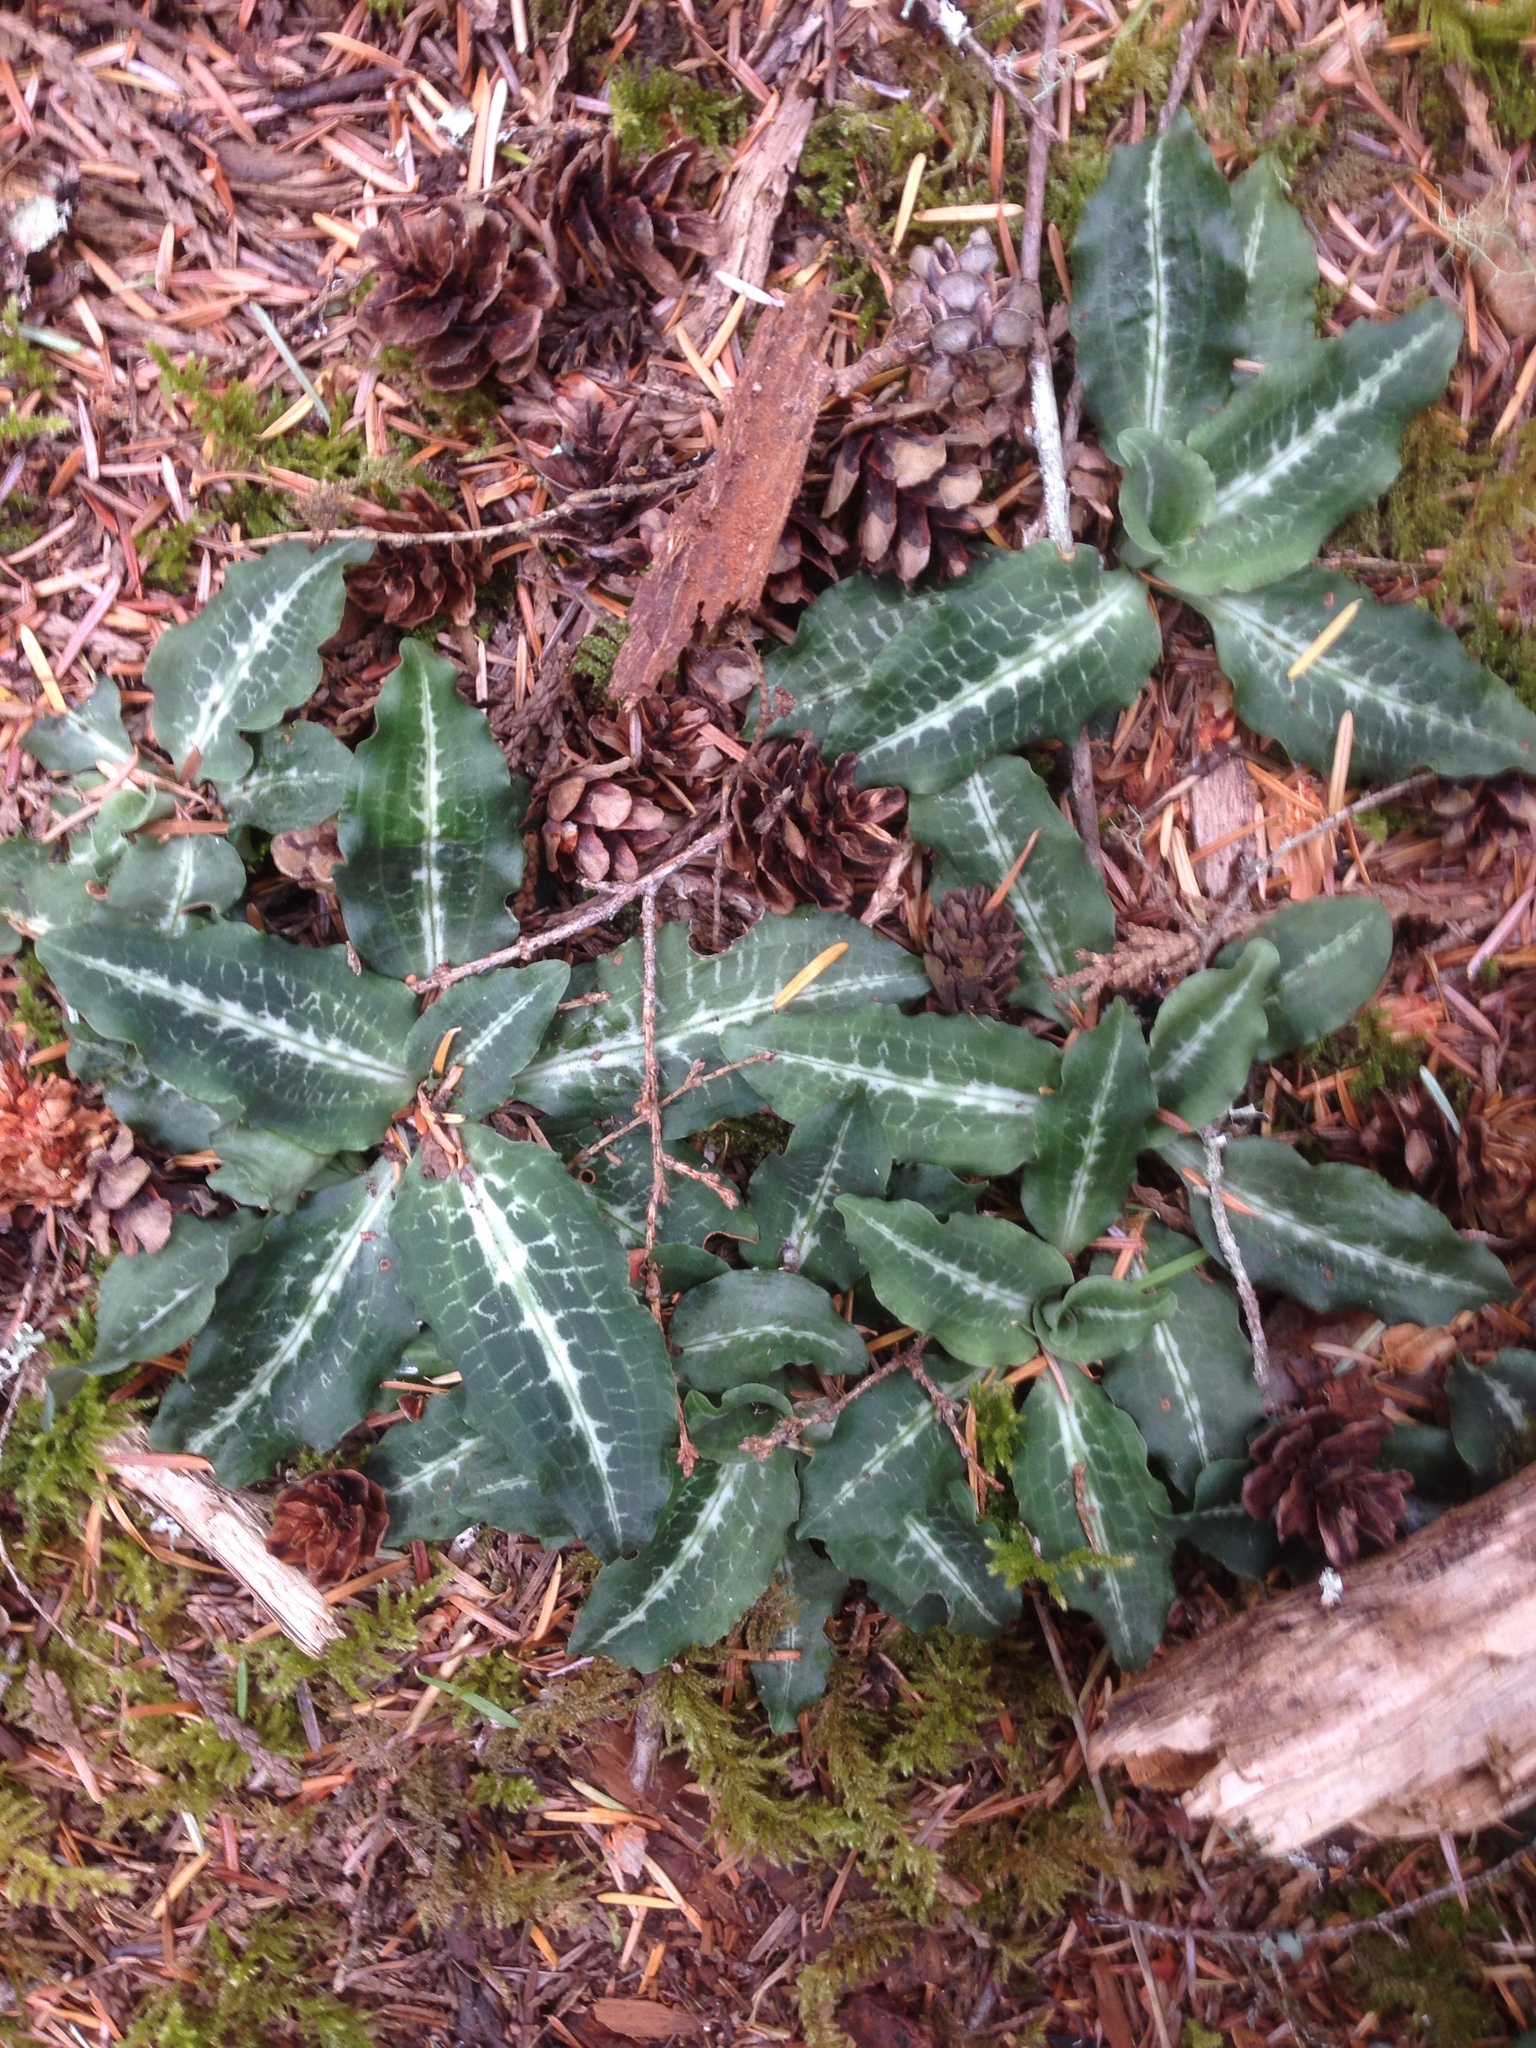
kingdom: Plantae
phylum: Tracheophyta
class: Liliopsida
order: Asparagales
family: Orchidaceae
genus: Goodyera
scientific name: Goodyera oblongifolia
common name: Giant rattlesnake-plantain
